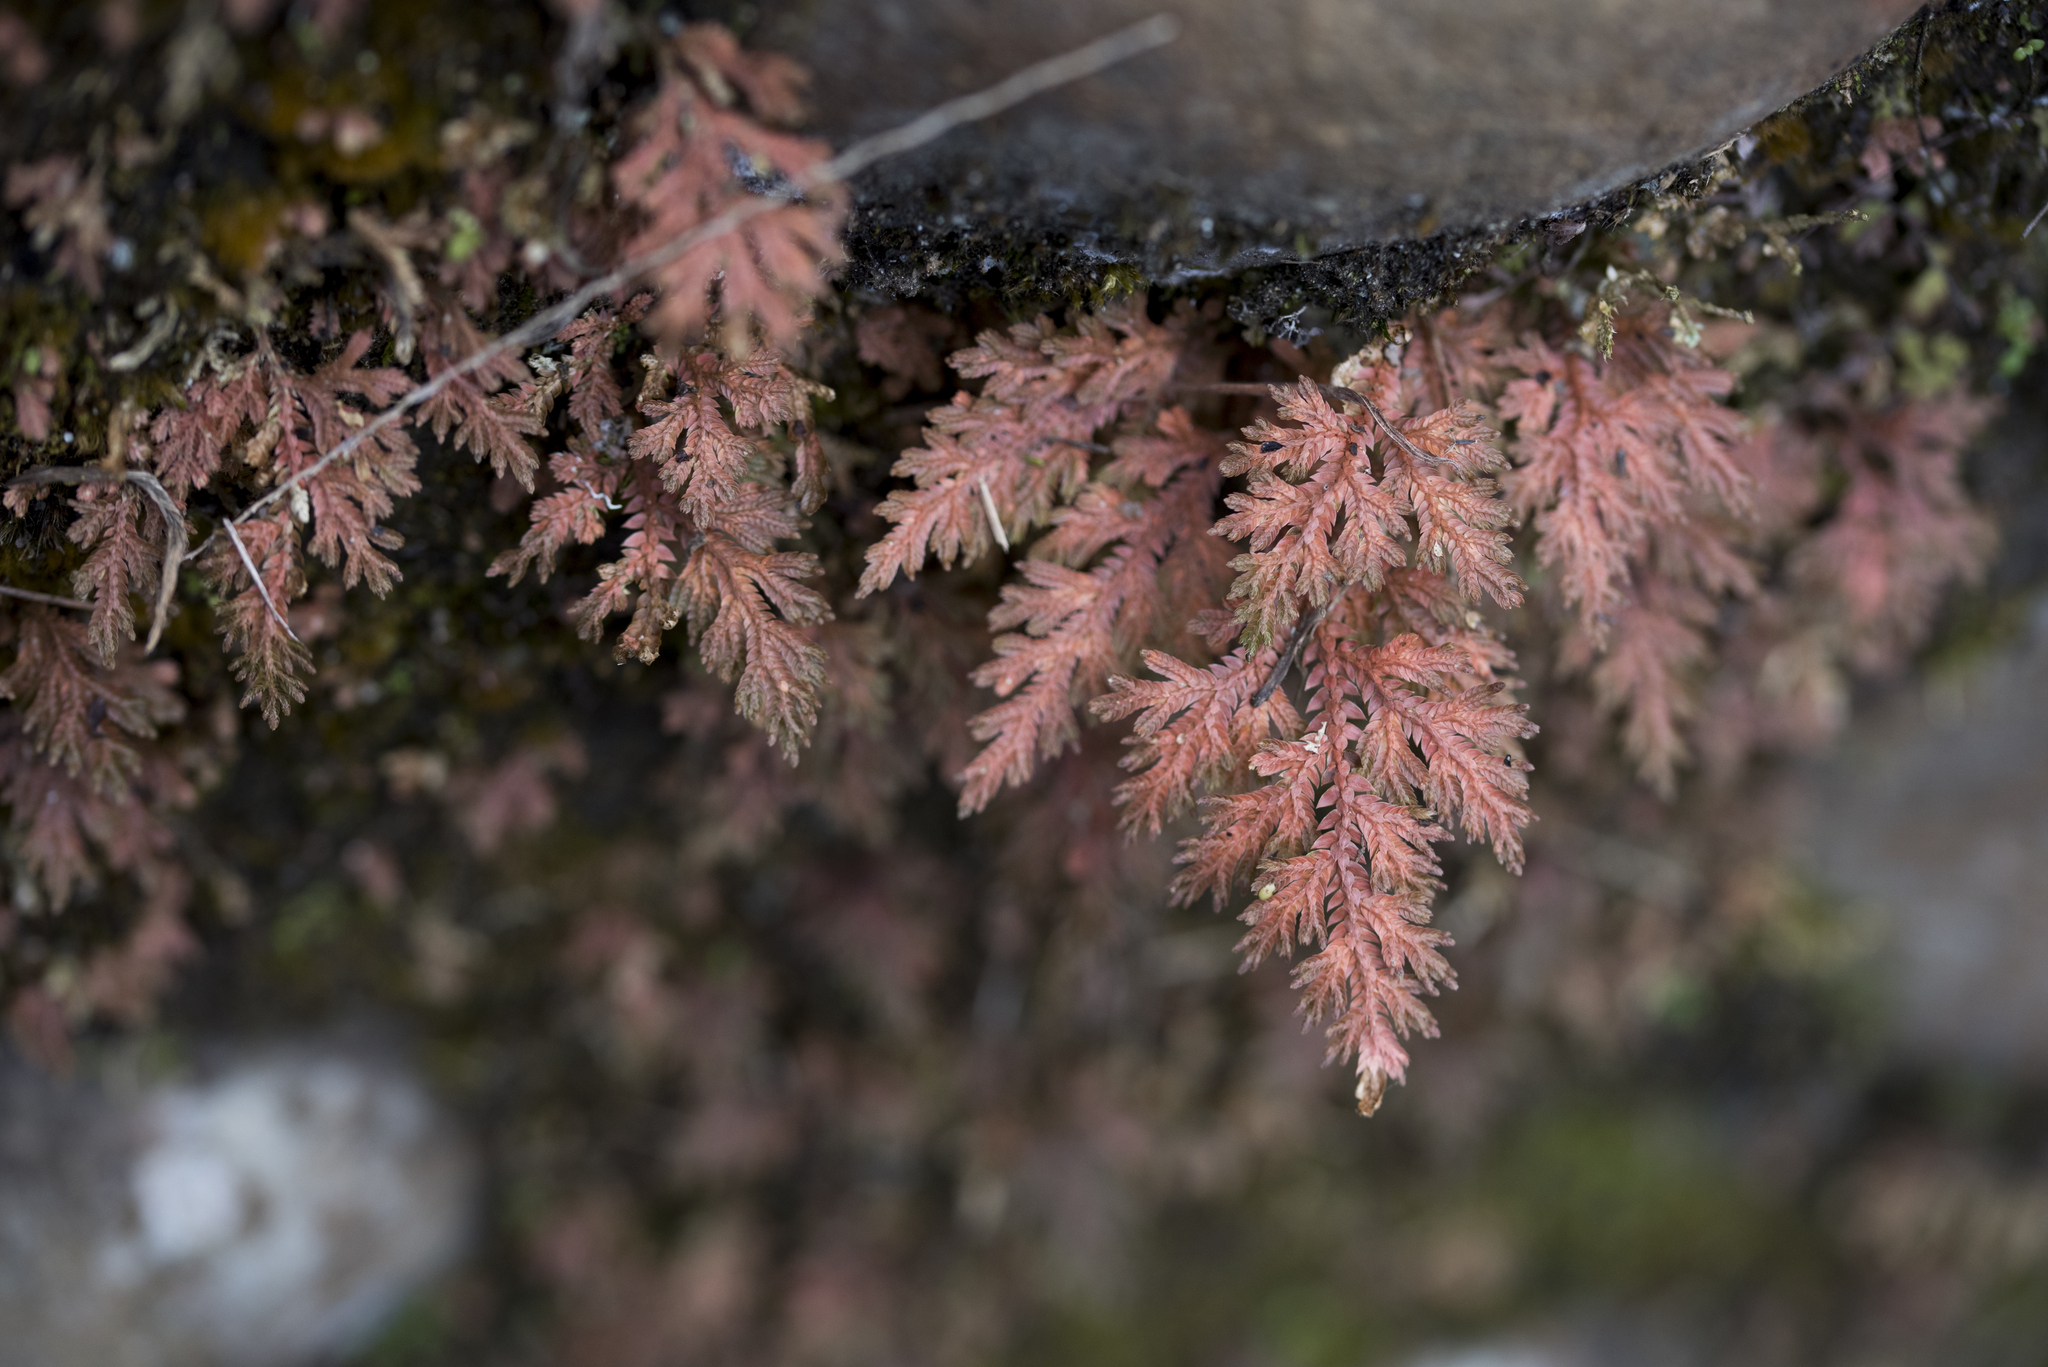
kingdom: Plantae
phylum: Tracheophyta
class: Lycopodiopsida
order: Selaginellales
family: Selaginellaceae
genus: Selaginella
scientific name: Selaginella moellendorffii
